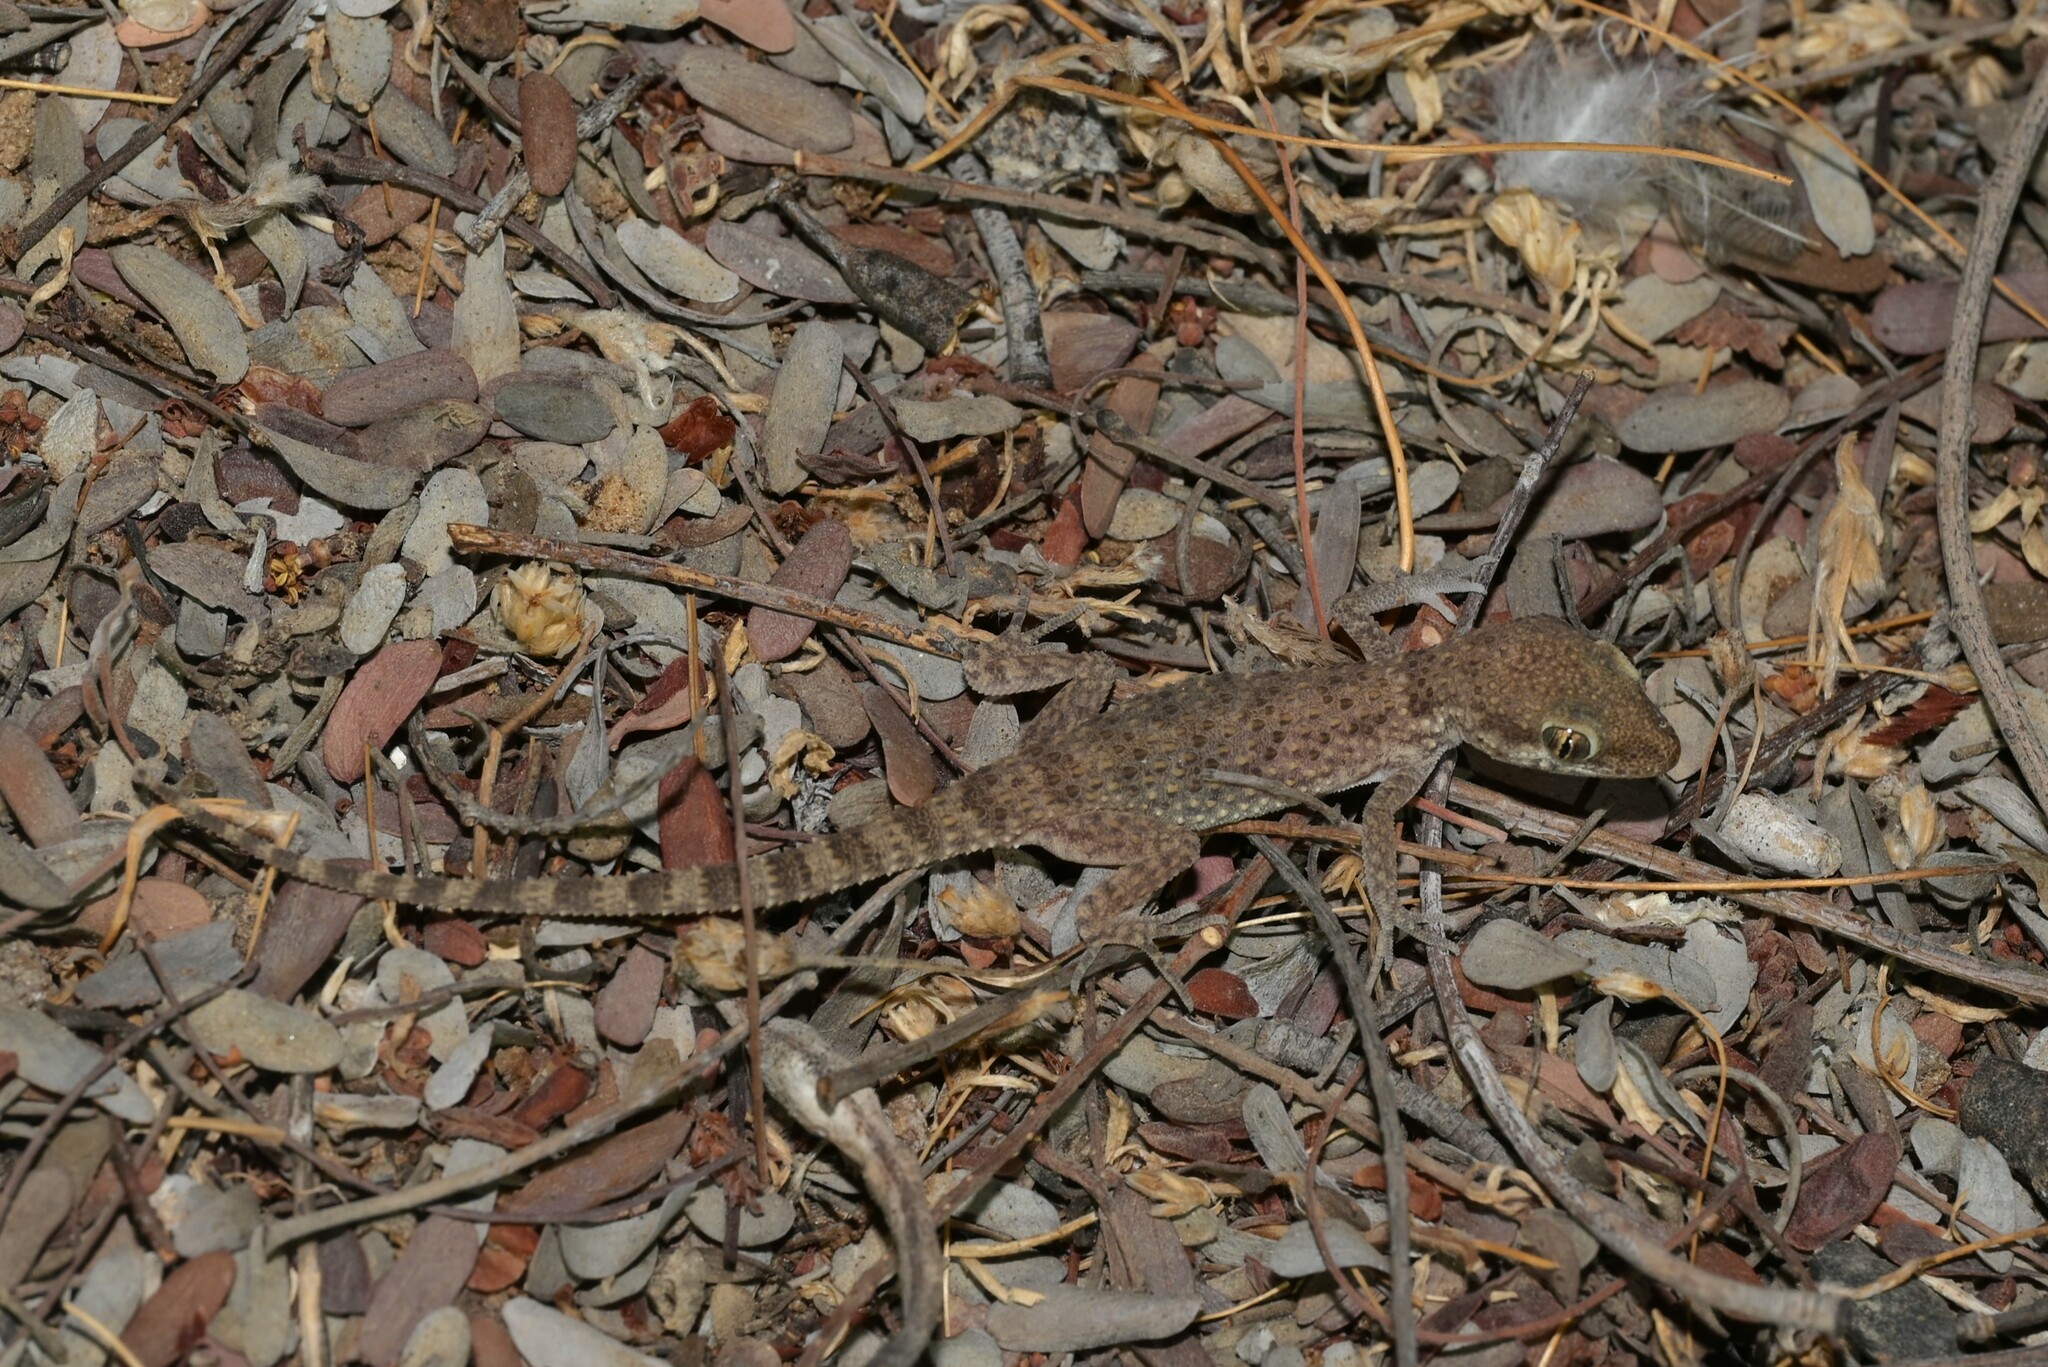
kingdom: Animalia
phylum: Chordata
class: Squamata
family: Gekkonidae
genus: Bunopus
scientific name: Bunopus tuberculatus
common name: Southern tuberculated gecko
